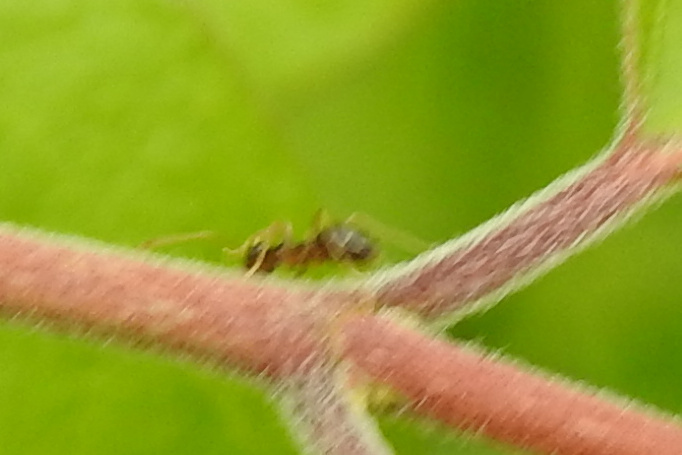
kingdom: Animalia
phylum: Arthropoda
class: Insecta
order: Hymenoptera
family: Formicidae
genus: Prenolepis
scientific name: Prenolepis imparis
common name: Small honey ant
